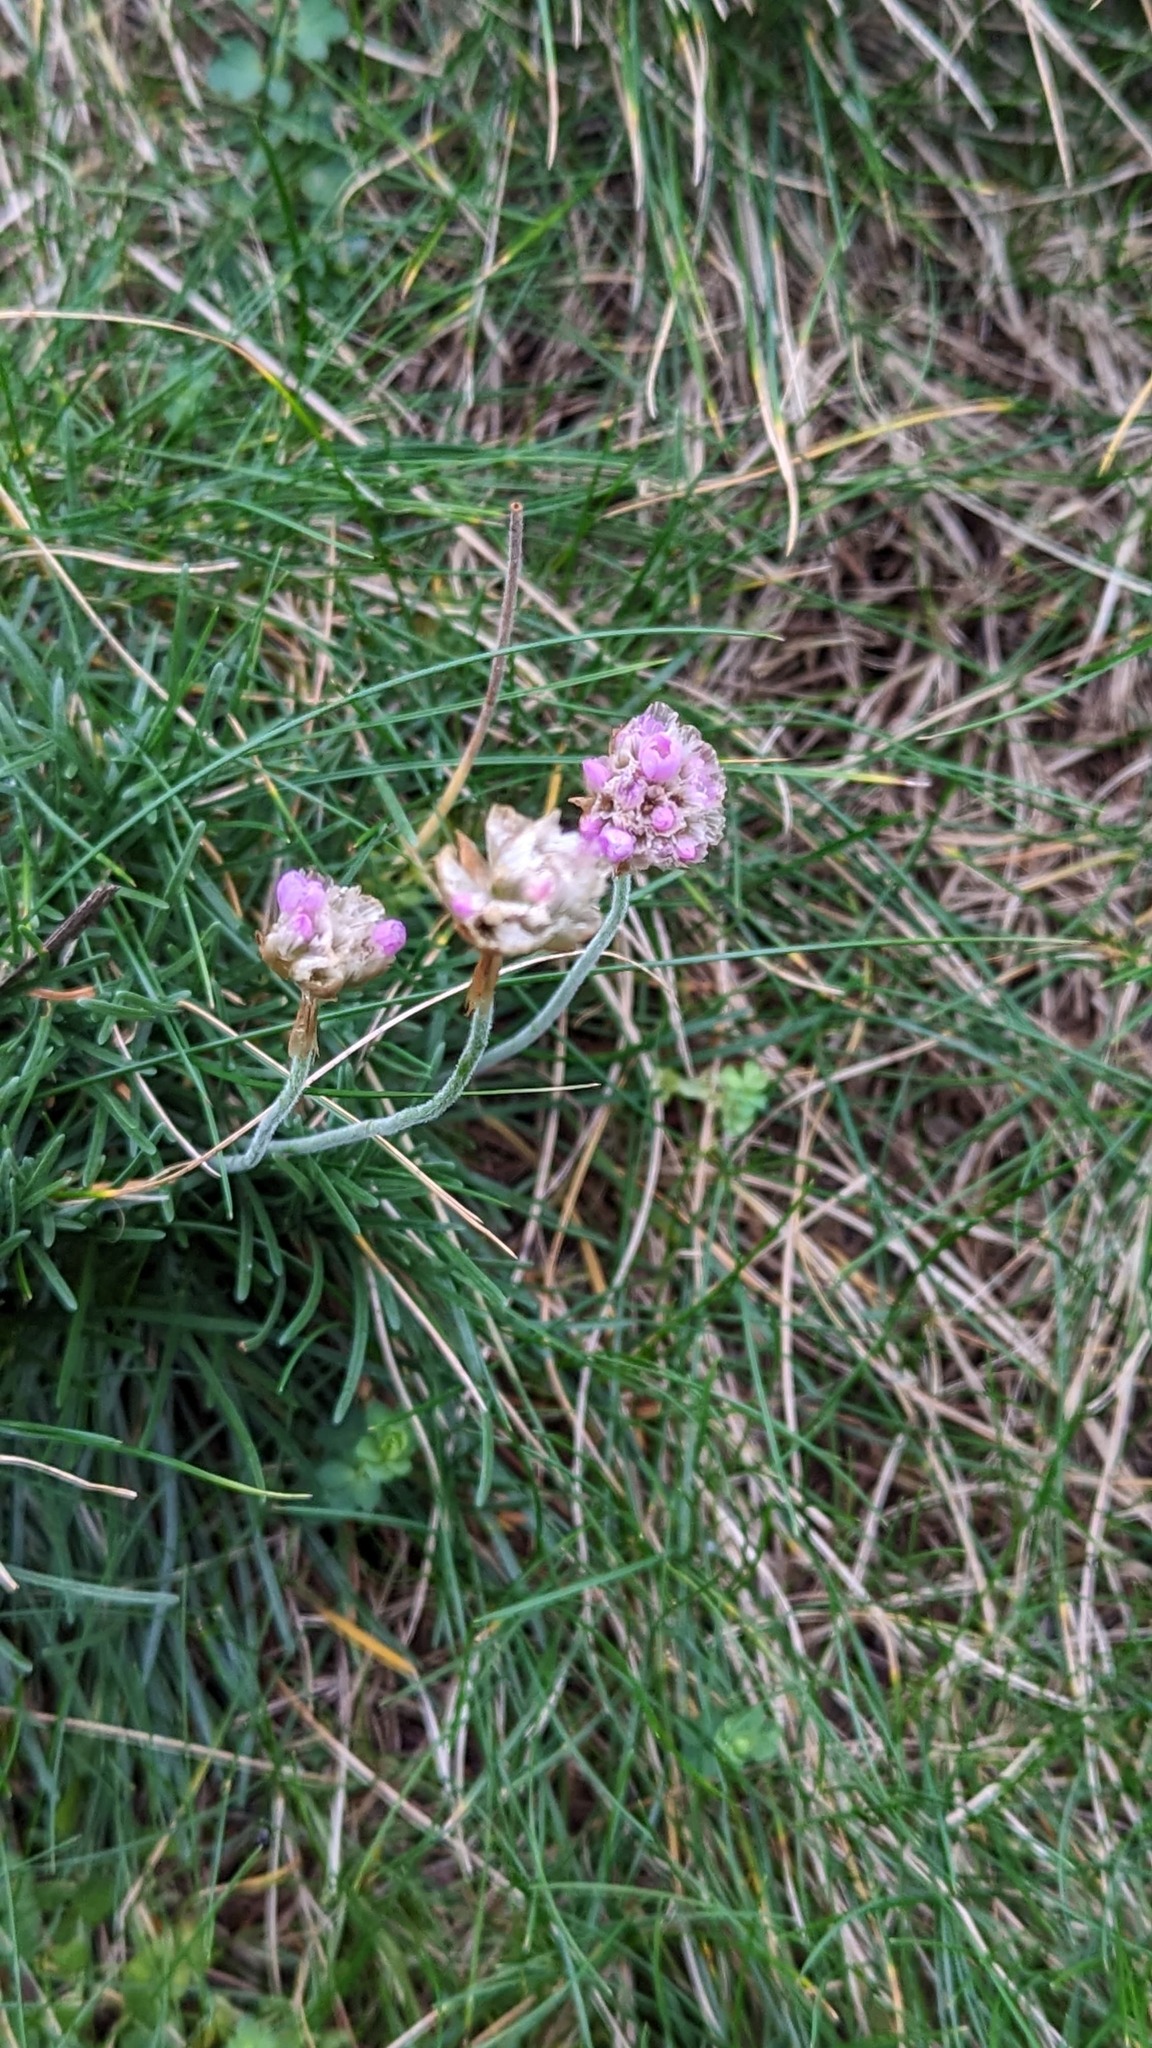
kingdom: Plantae
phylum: Tracheophyta
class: Magnoliopsida
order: Caryophyllales
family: Plumbaginaceae
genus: Armeria
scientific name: Armeria maritima
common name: Thrift
